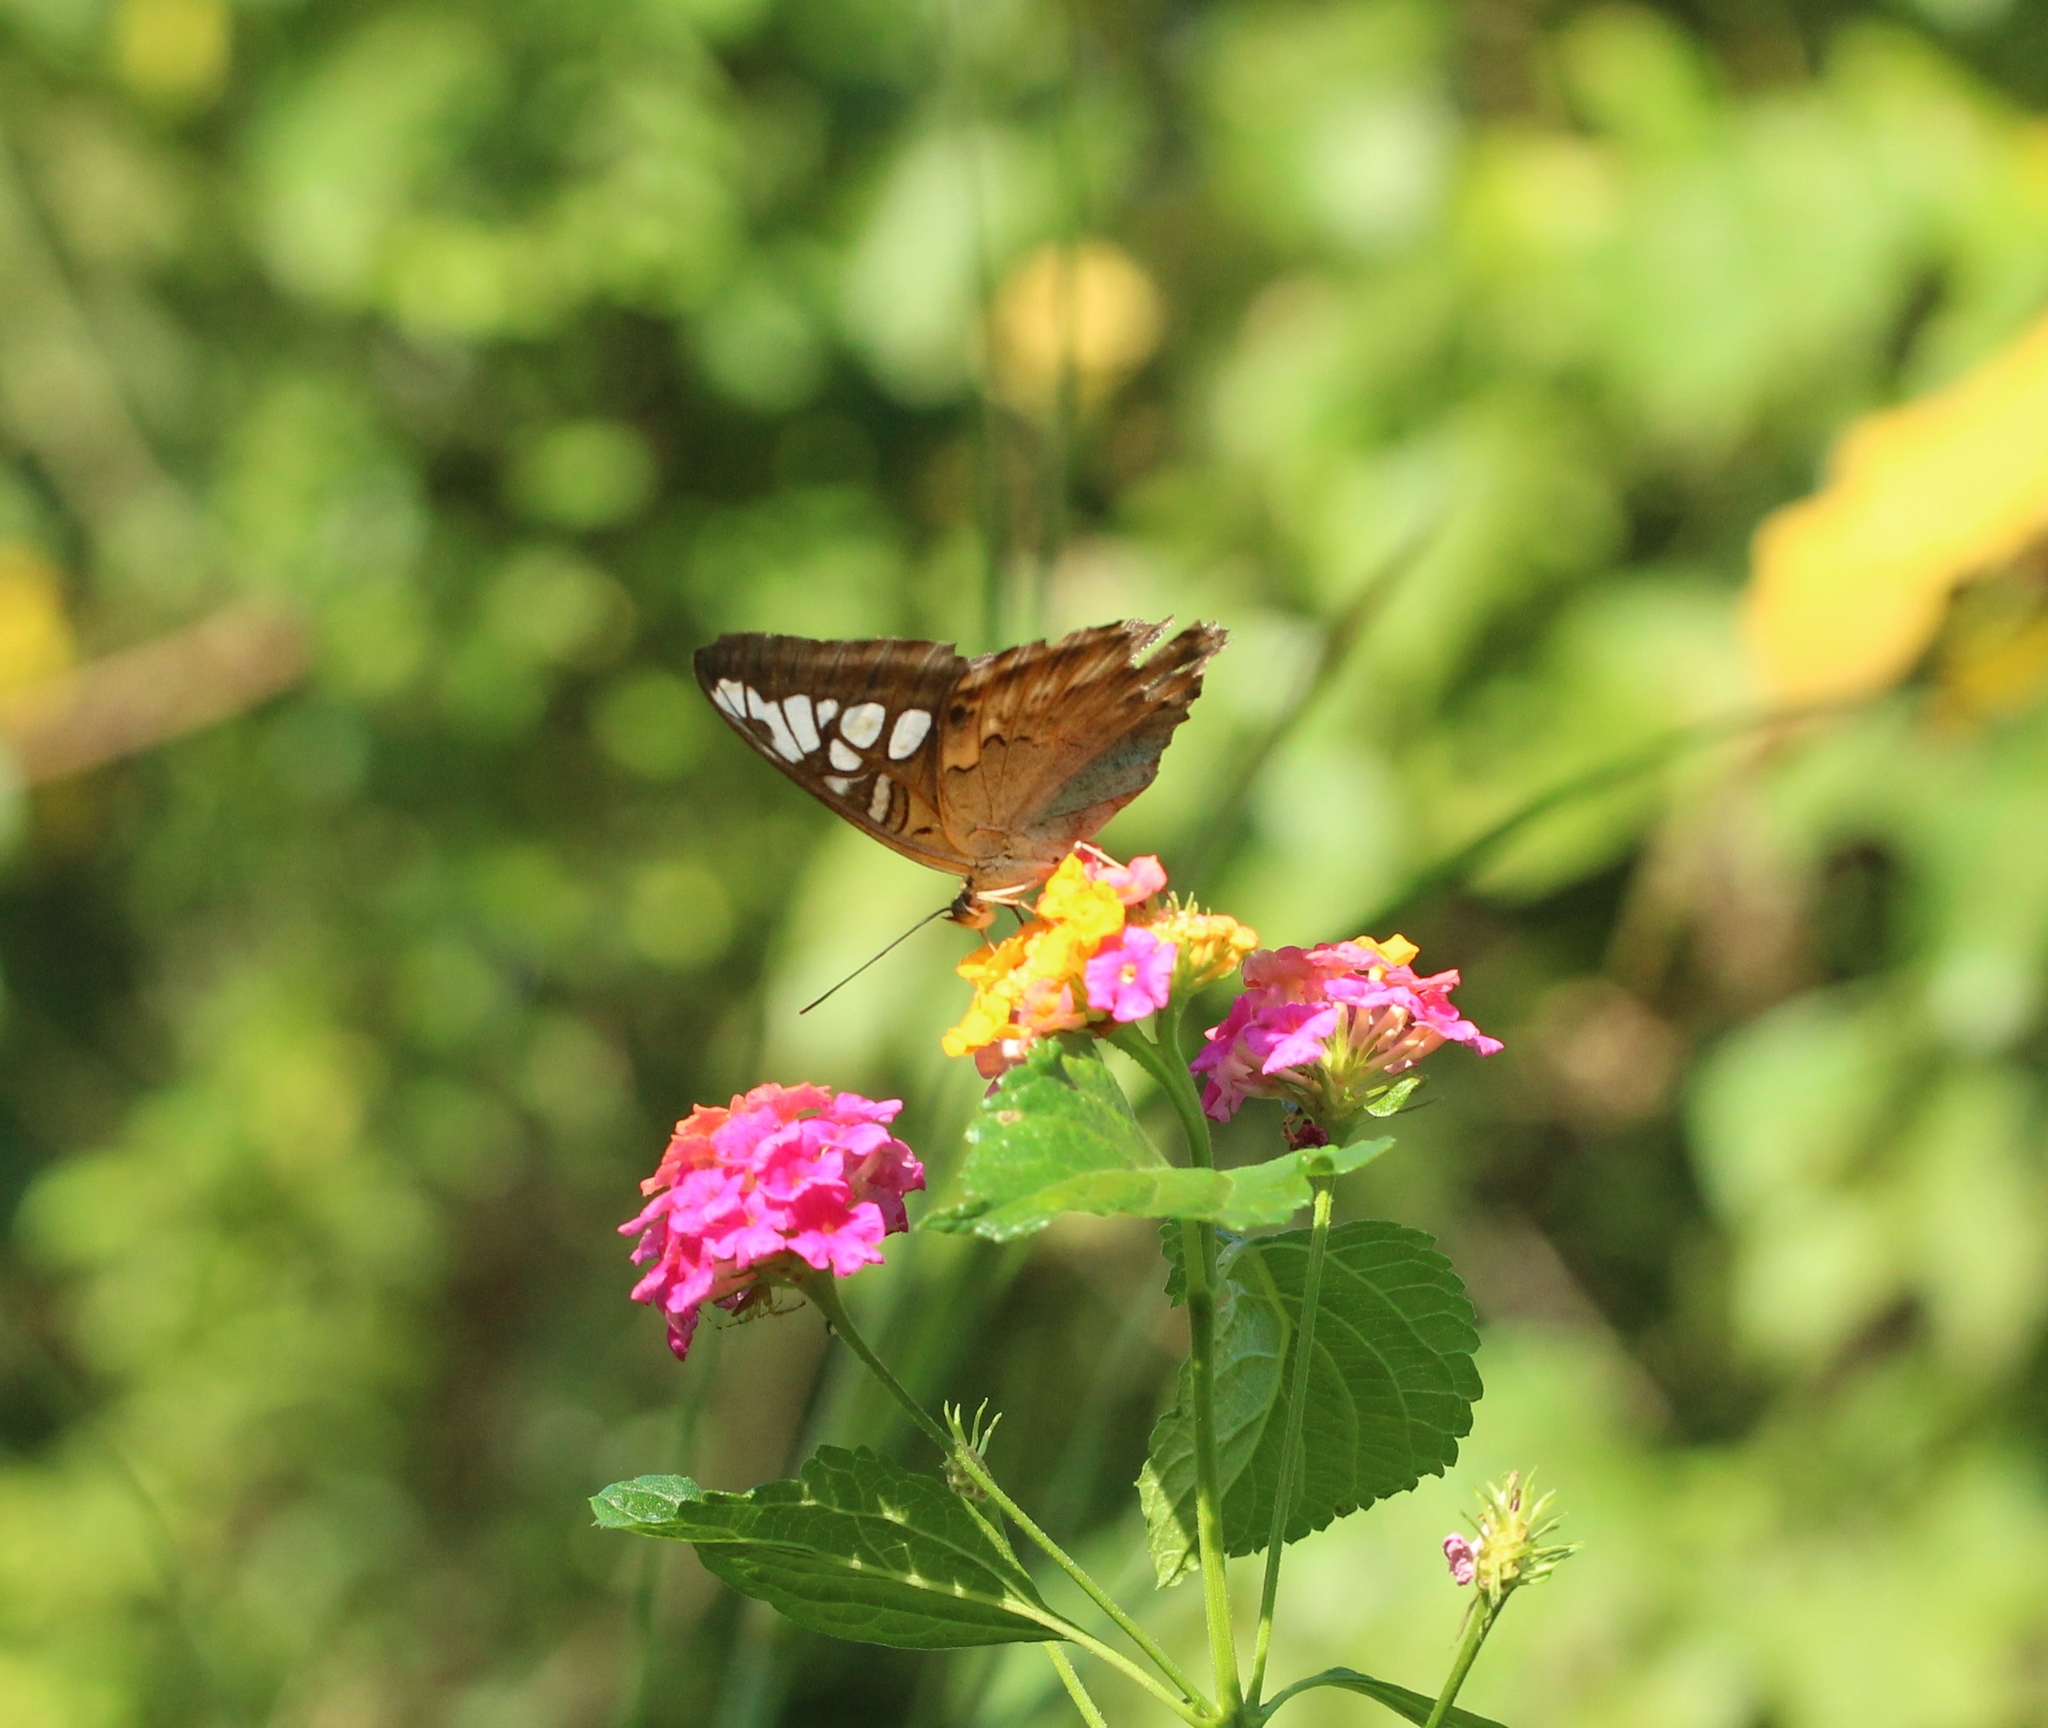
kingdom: Animalia
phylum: Arthropoda
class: Insecta
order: Lepidoptera
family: Nymphalidae
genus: Kallima
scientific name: Kallima sylvia
